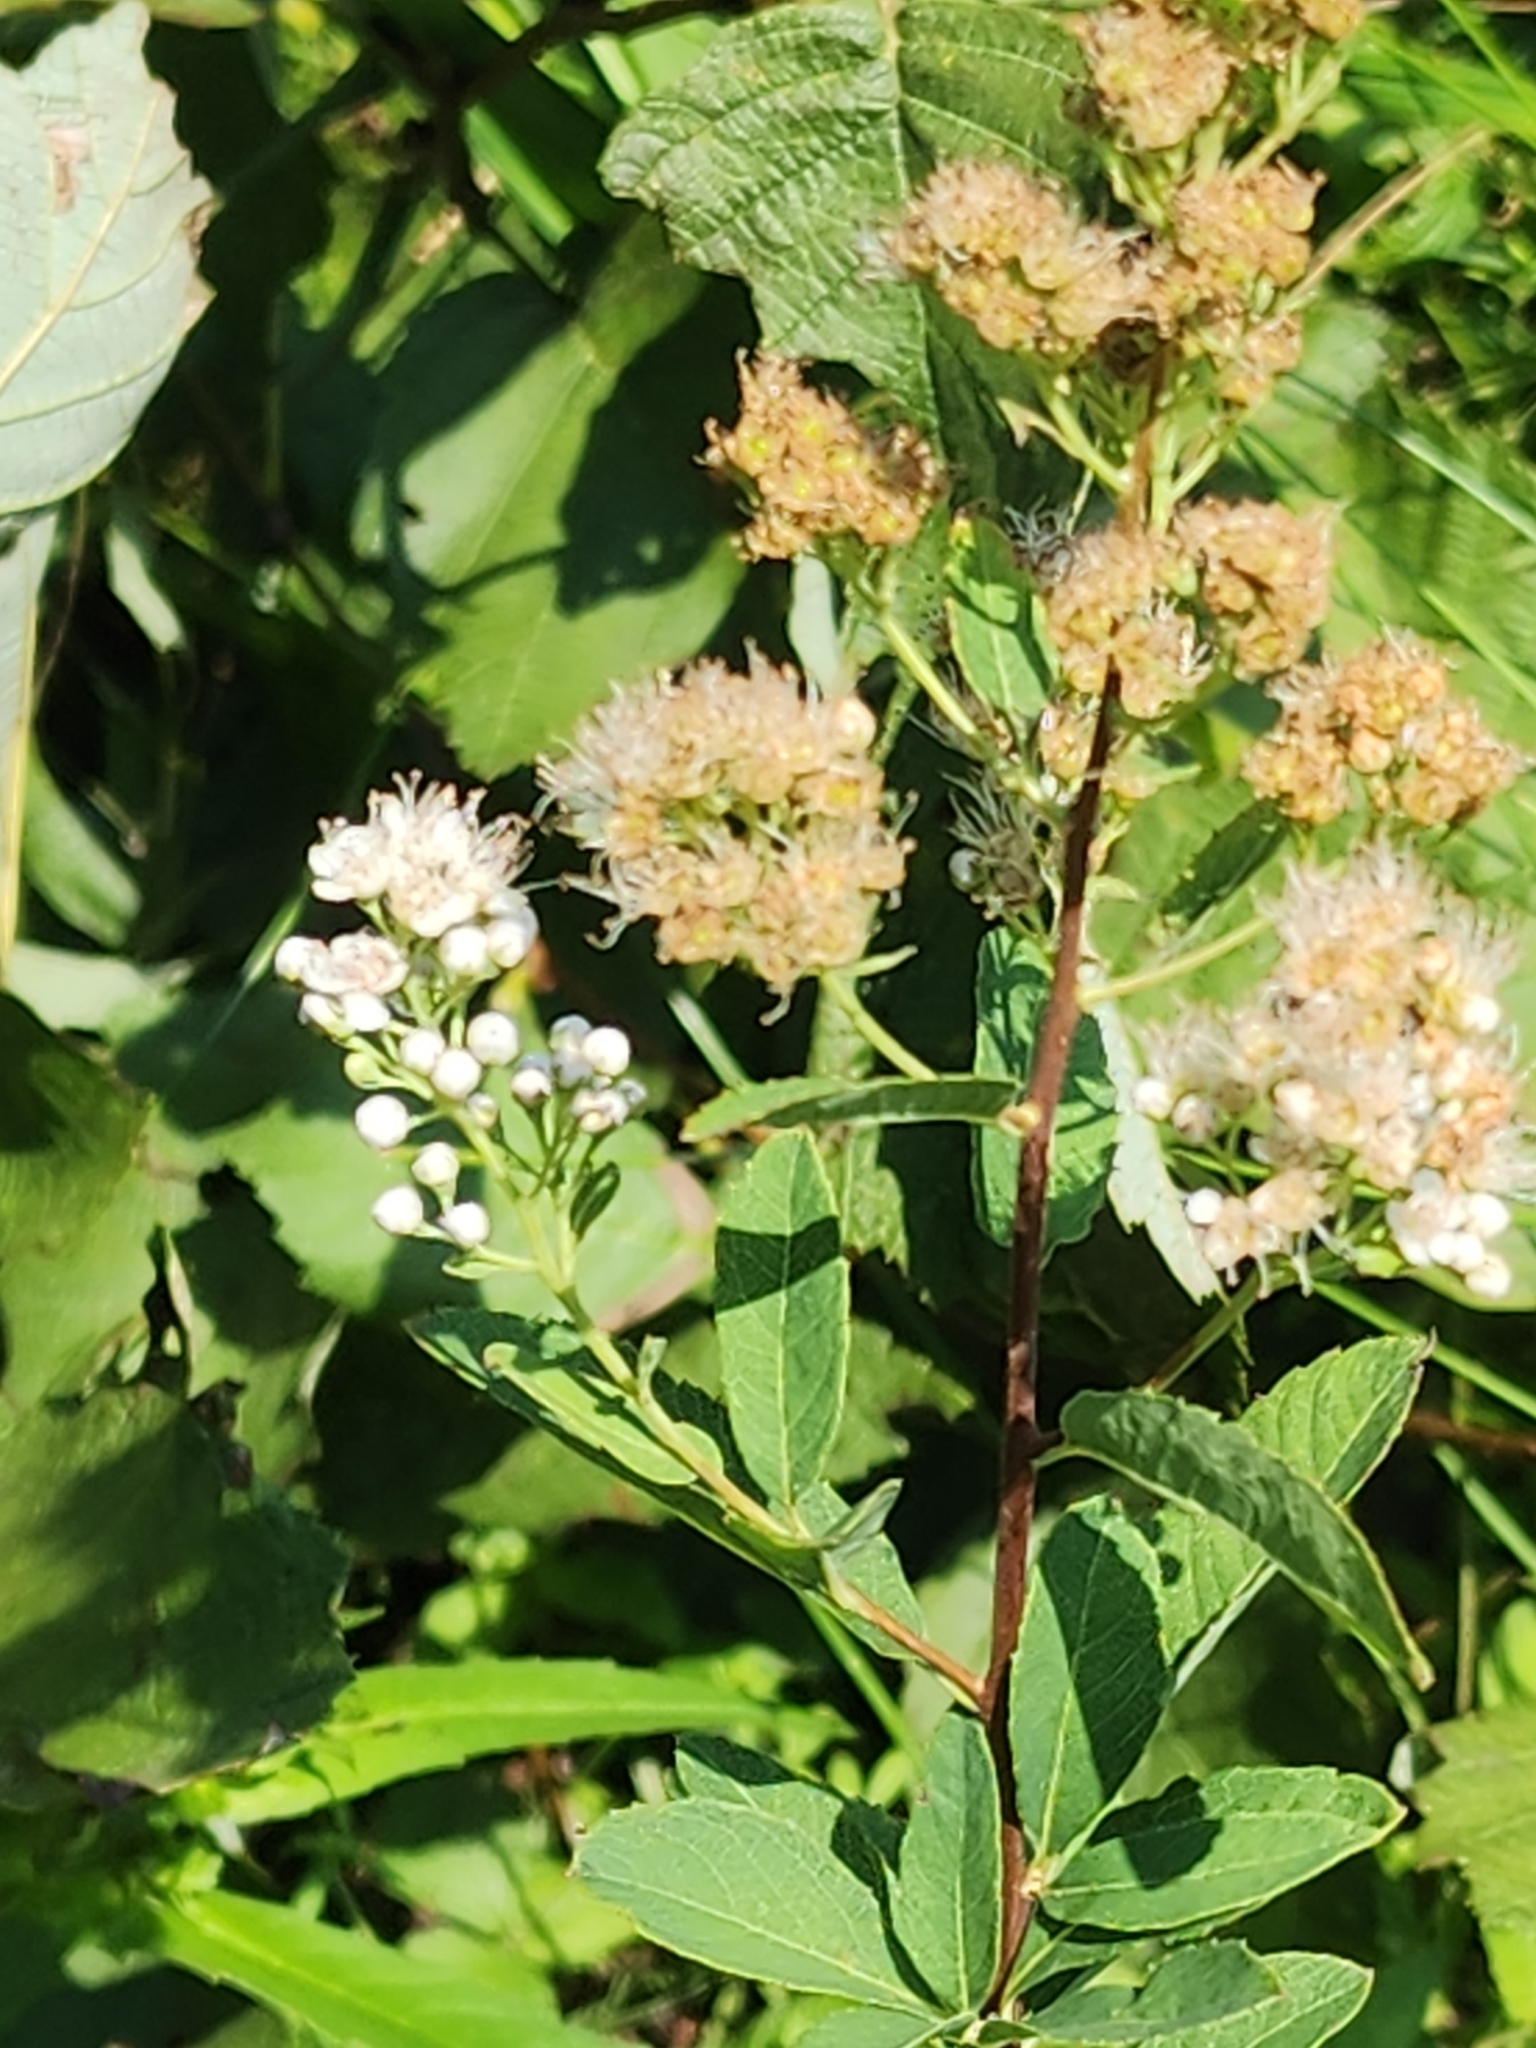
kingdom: Plantae
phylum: Tracheophyta
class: Magnoliopsida
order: Rosales
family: Rosaceae
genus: Spiraea
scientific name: Spiraea alba
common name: Pale bridewort
